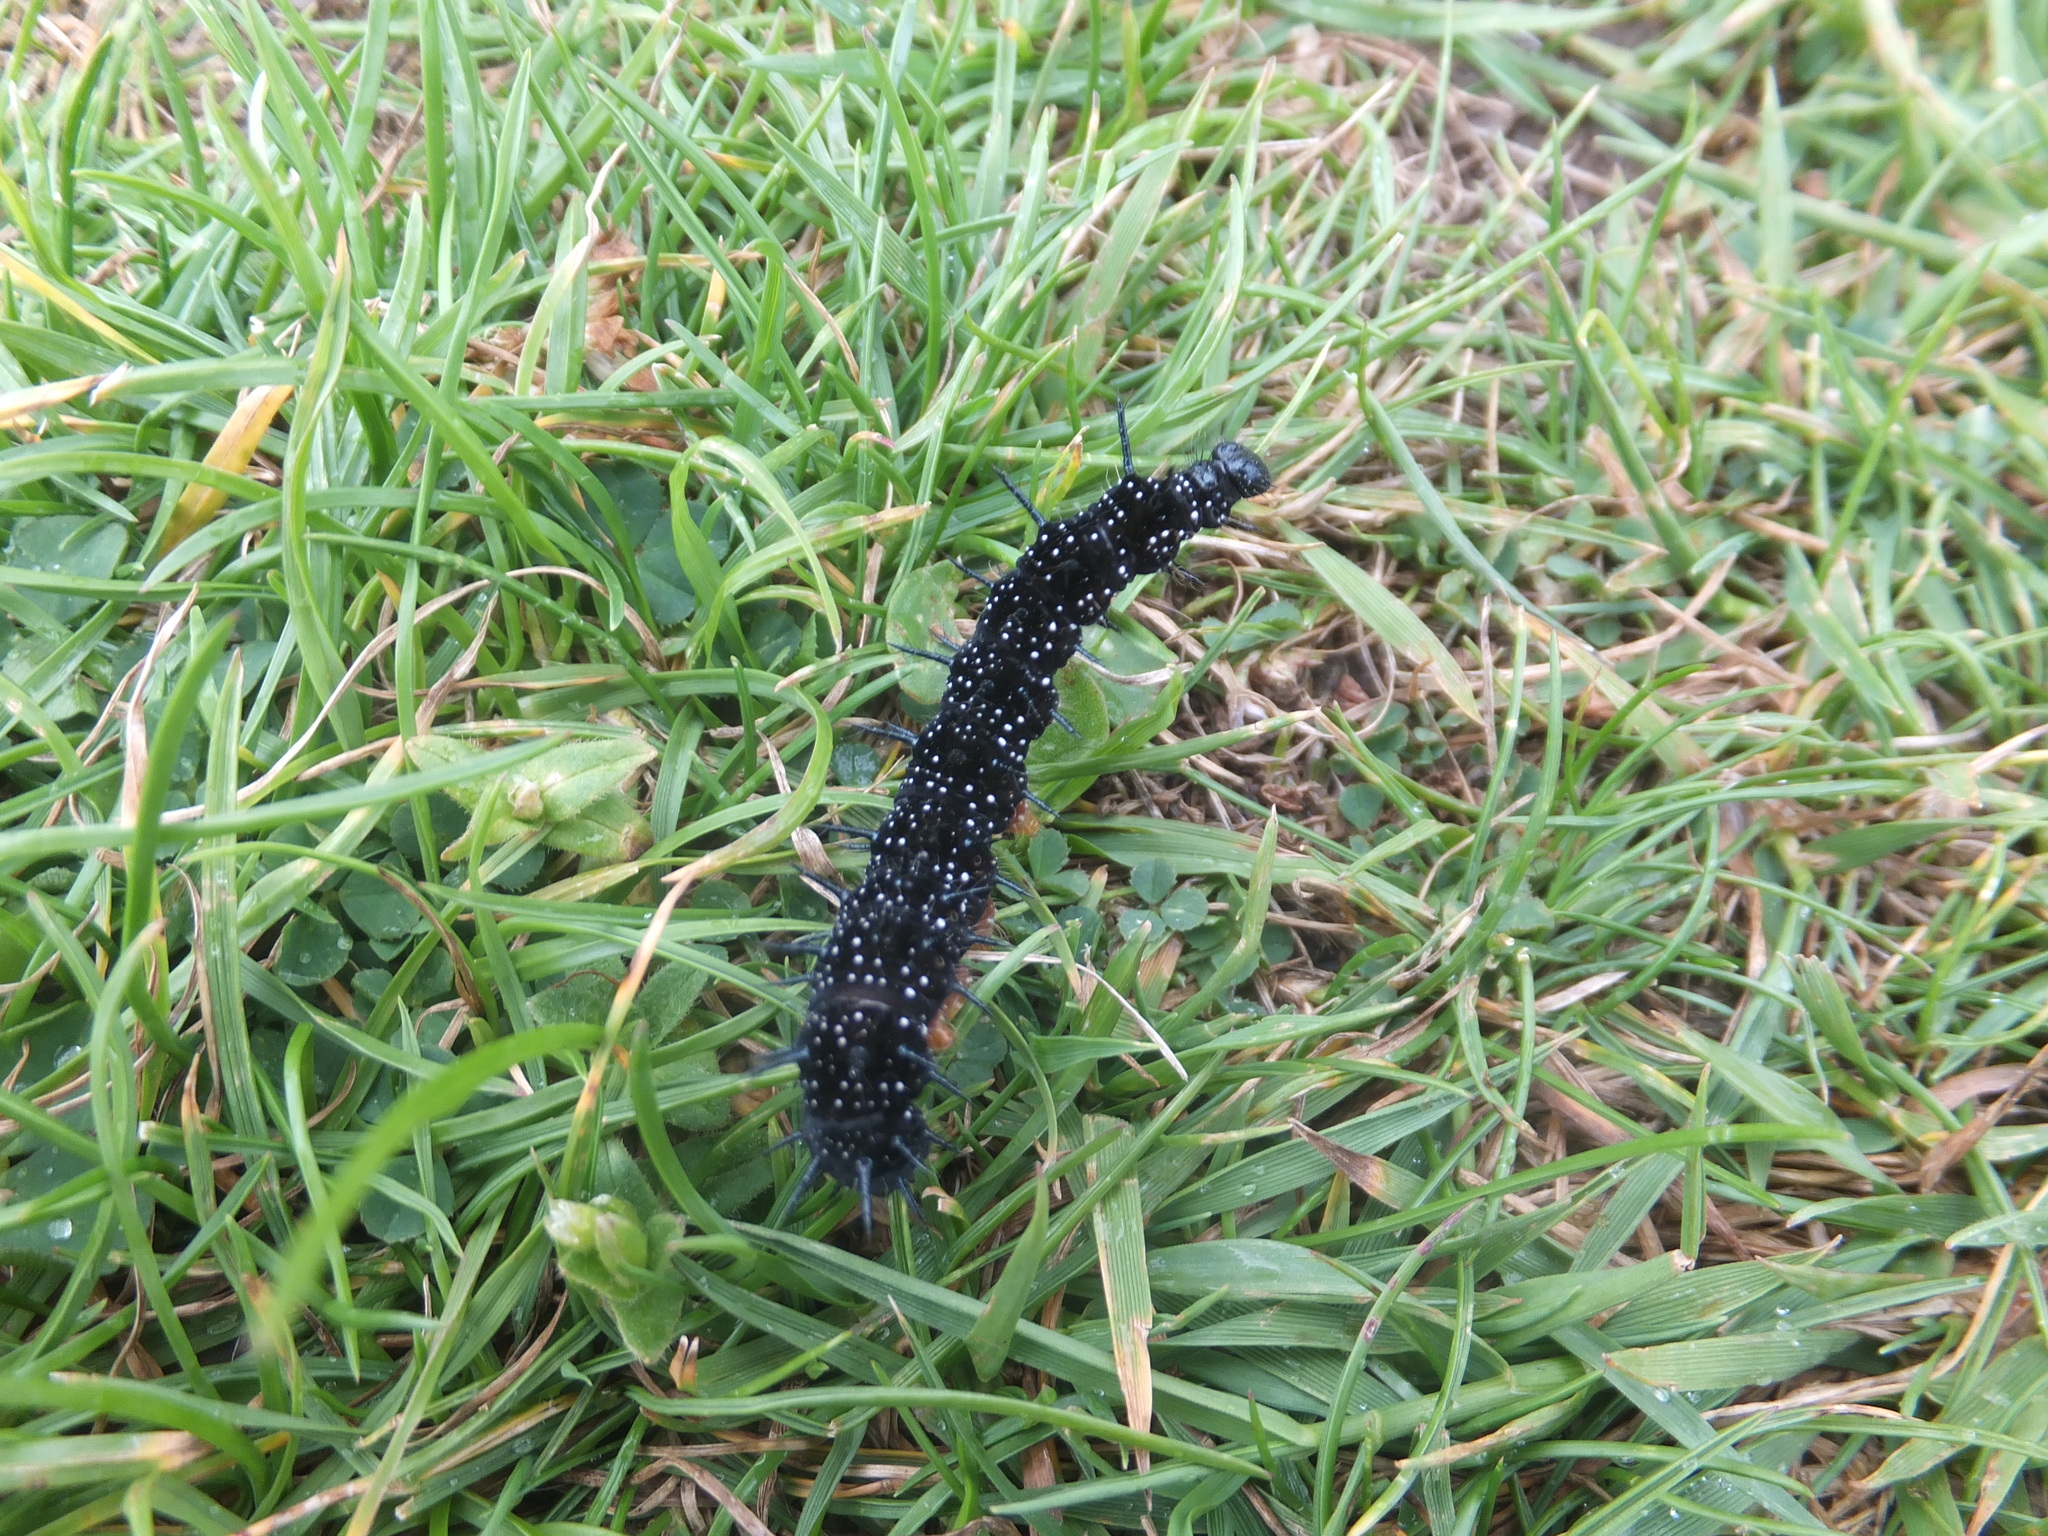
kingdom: Animalia
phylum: Arthropoda
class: Insecta
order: Lepidoptera
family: Nymphalidae
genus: Aglais
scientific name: Aglais io
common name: Peacock
